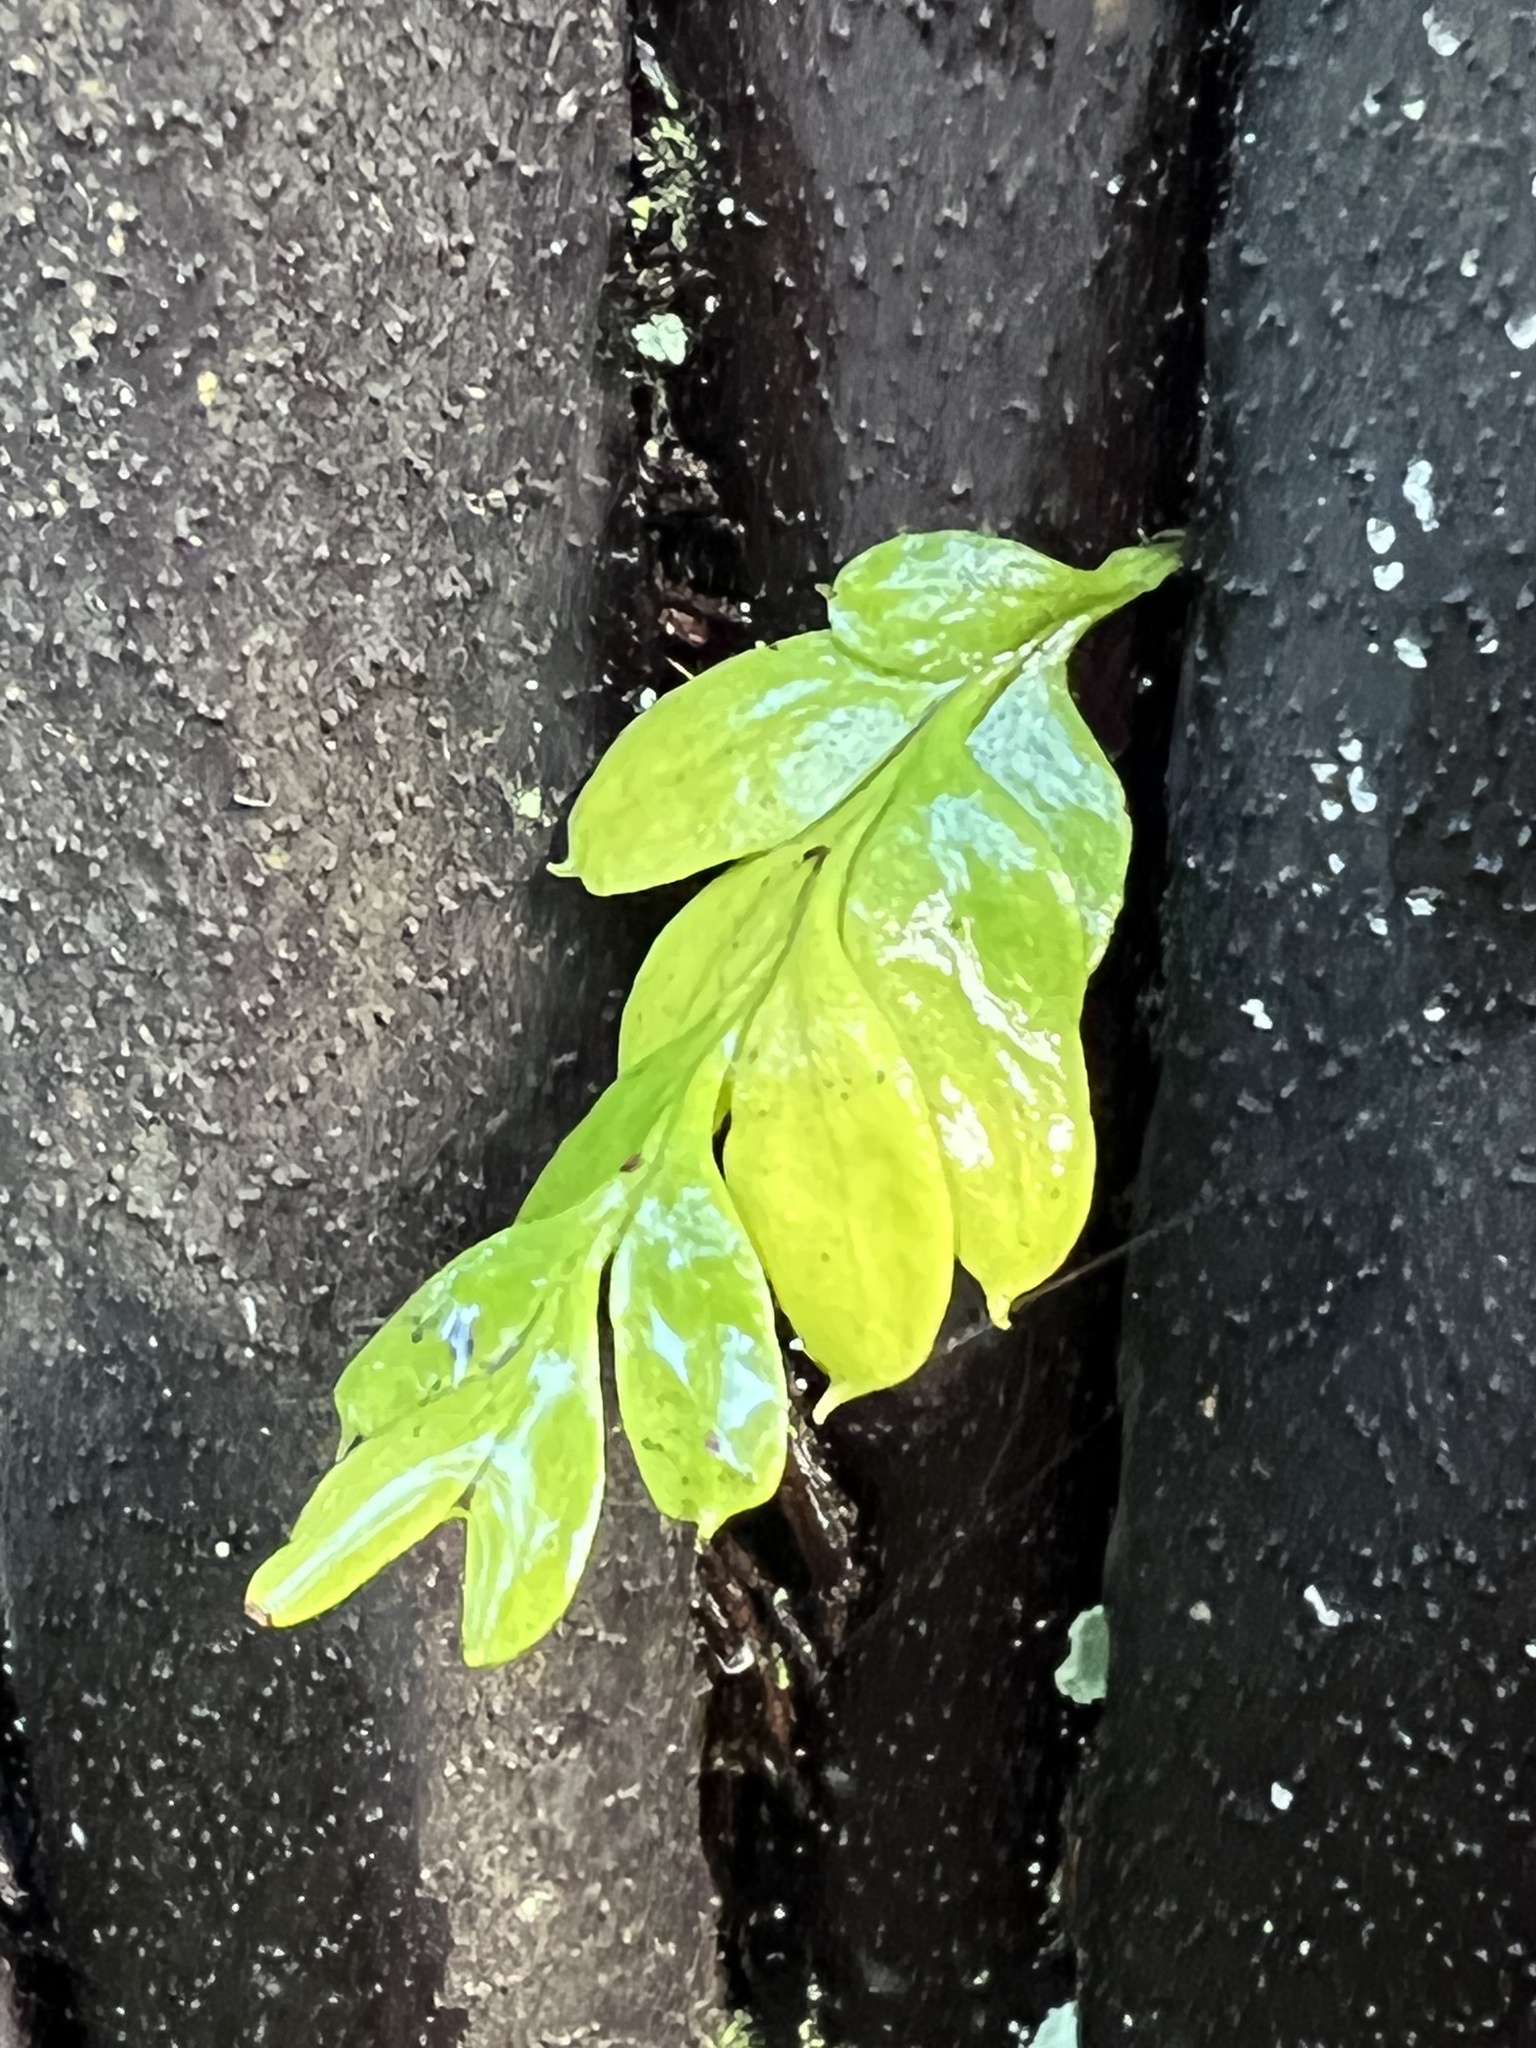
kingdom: Plantae
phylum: Tracheophyta
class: Polypodiopsida
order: Psilotales
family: Psilotaceae
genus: Tmesipteris
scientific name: Tmesipteris lanceolata
